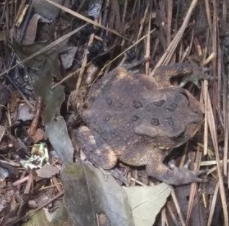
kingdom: Animalia
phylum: Chordata
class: Amphibia
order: Anura
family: Bufonidae
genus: Anaxyrus
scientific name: Anaxyrus fowleri
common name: Fowler's toad
